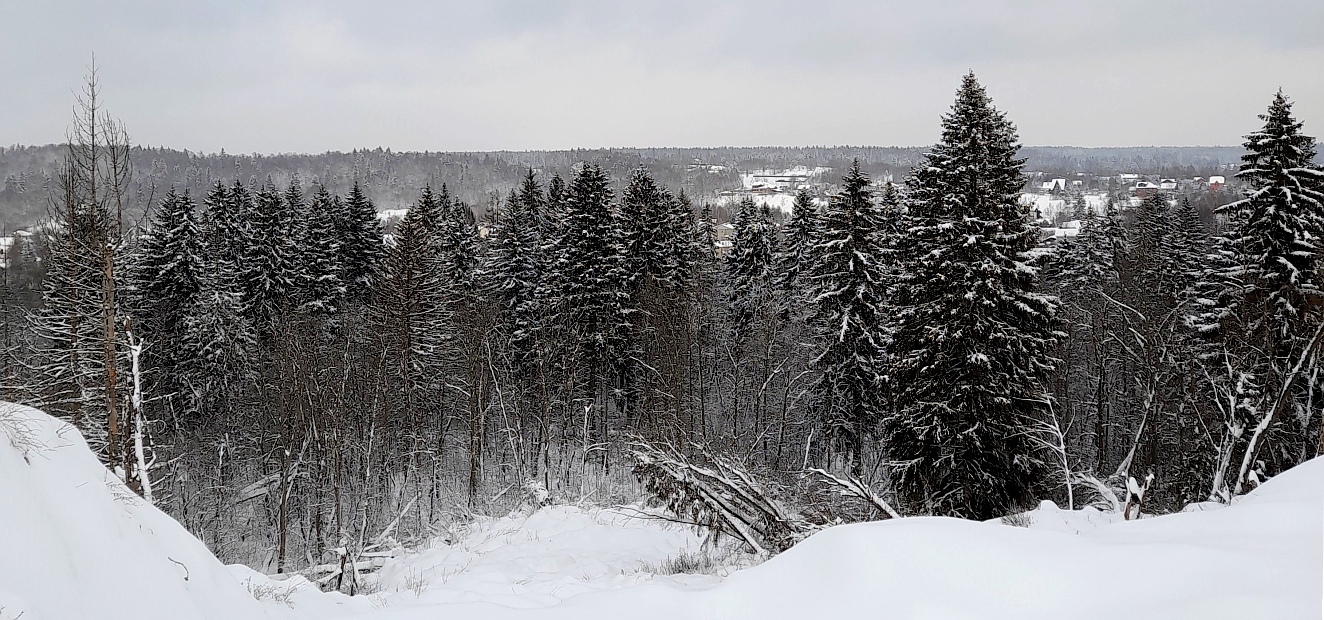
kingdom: Plantae
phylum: Tracheophyta
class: Pinopsida
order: Pinales
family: Pinaceae
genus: Picea
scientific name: Picea abies
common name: Norway spruce
